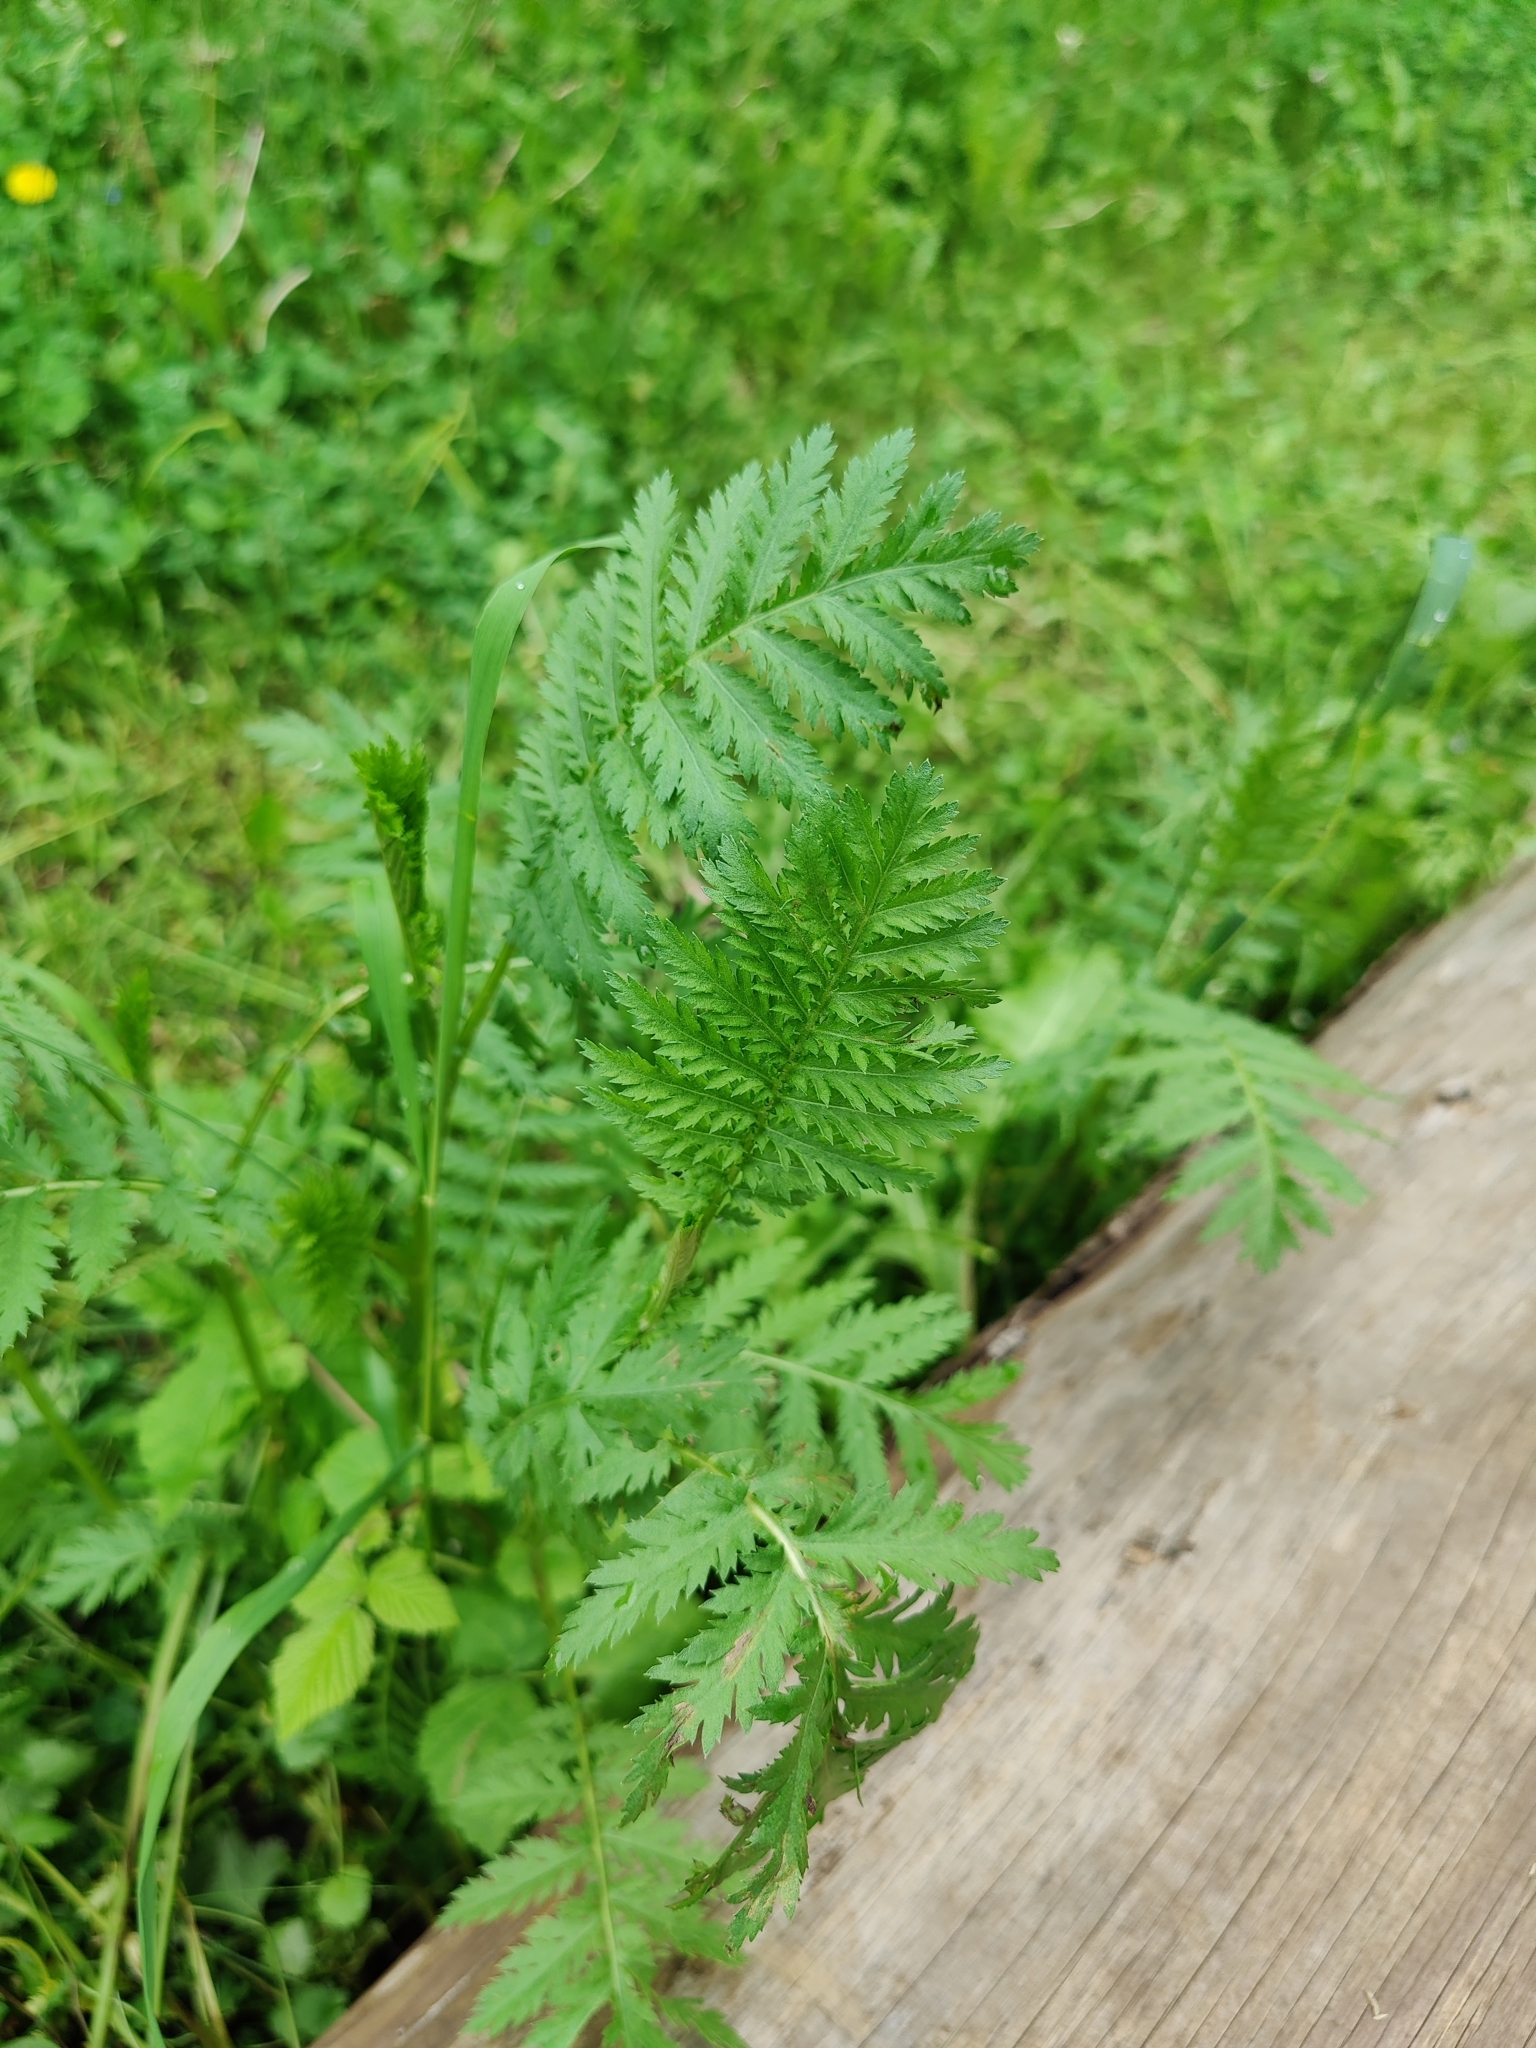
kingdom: Plantae
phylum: Tracheophyta
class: Magnoliopsida
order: Asterales
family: Asteraceae
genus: Tanacetum
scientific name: Tanacetum vulgare
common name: Common tansy
